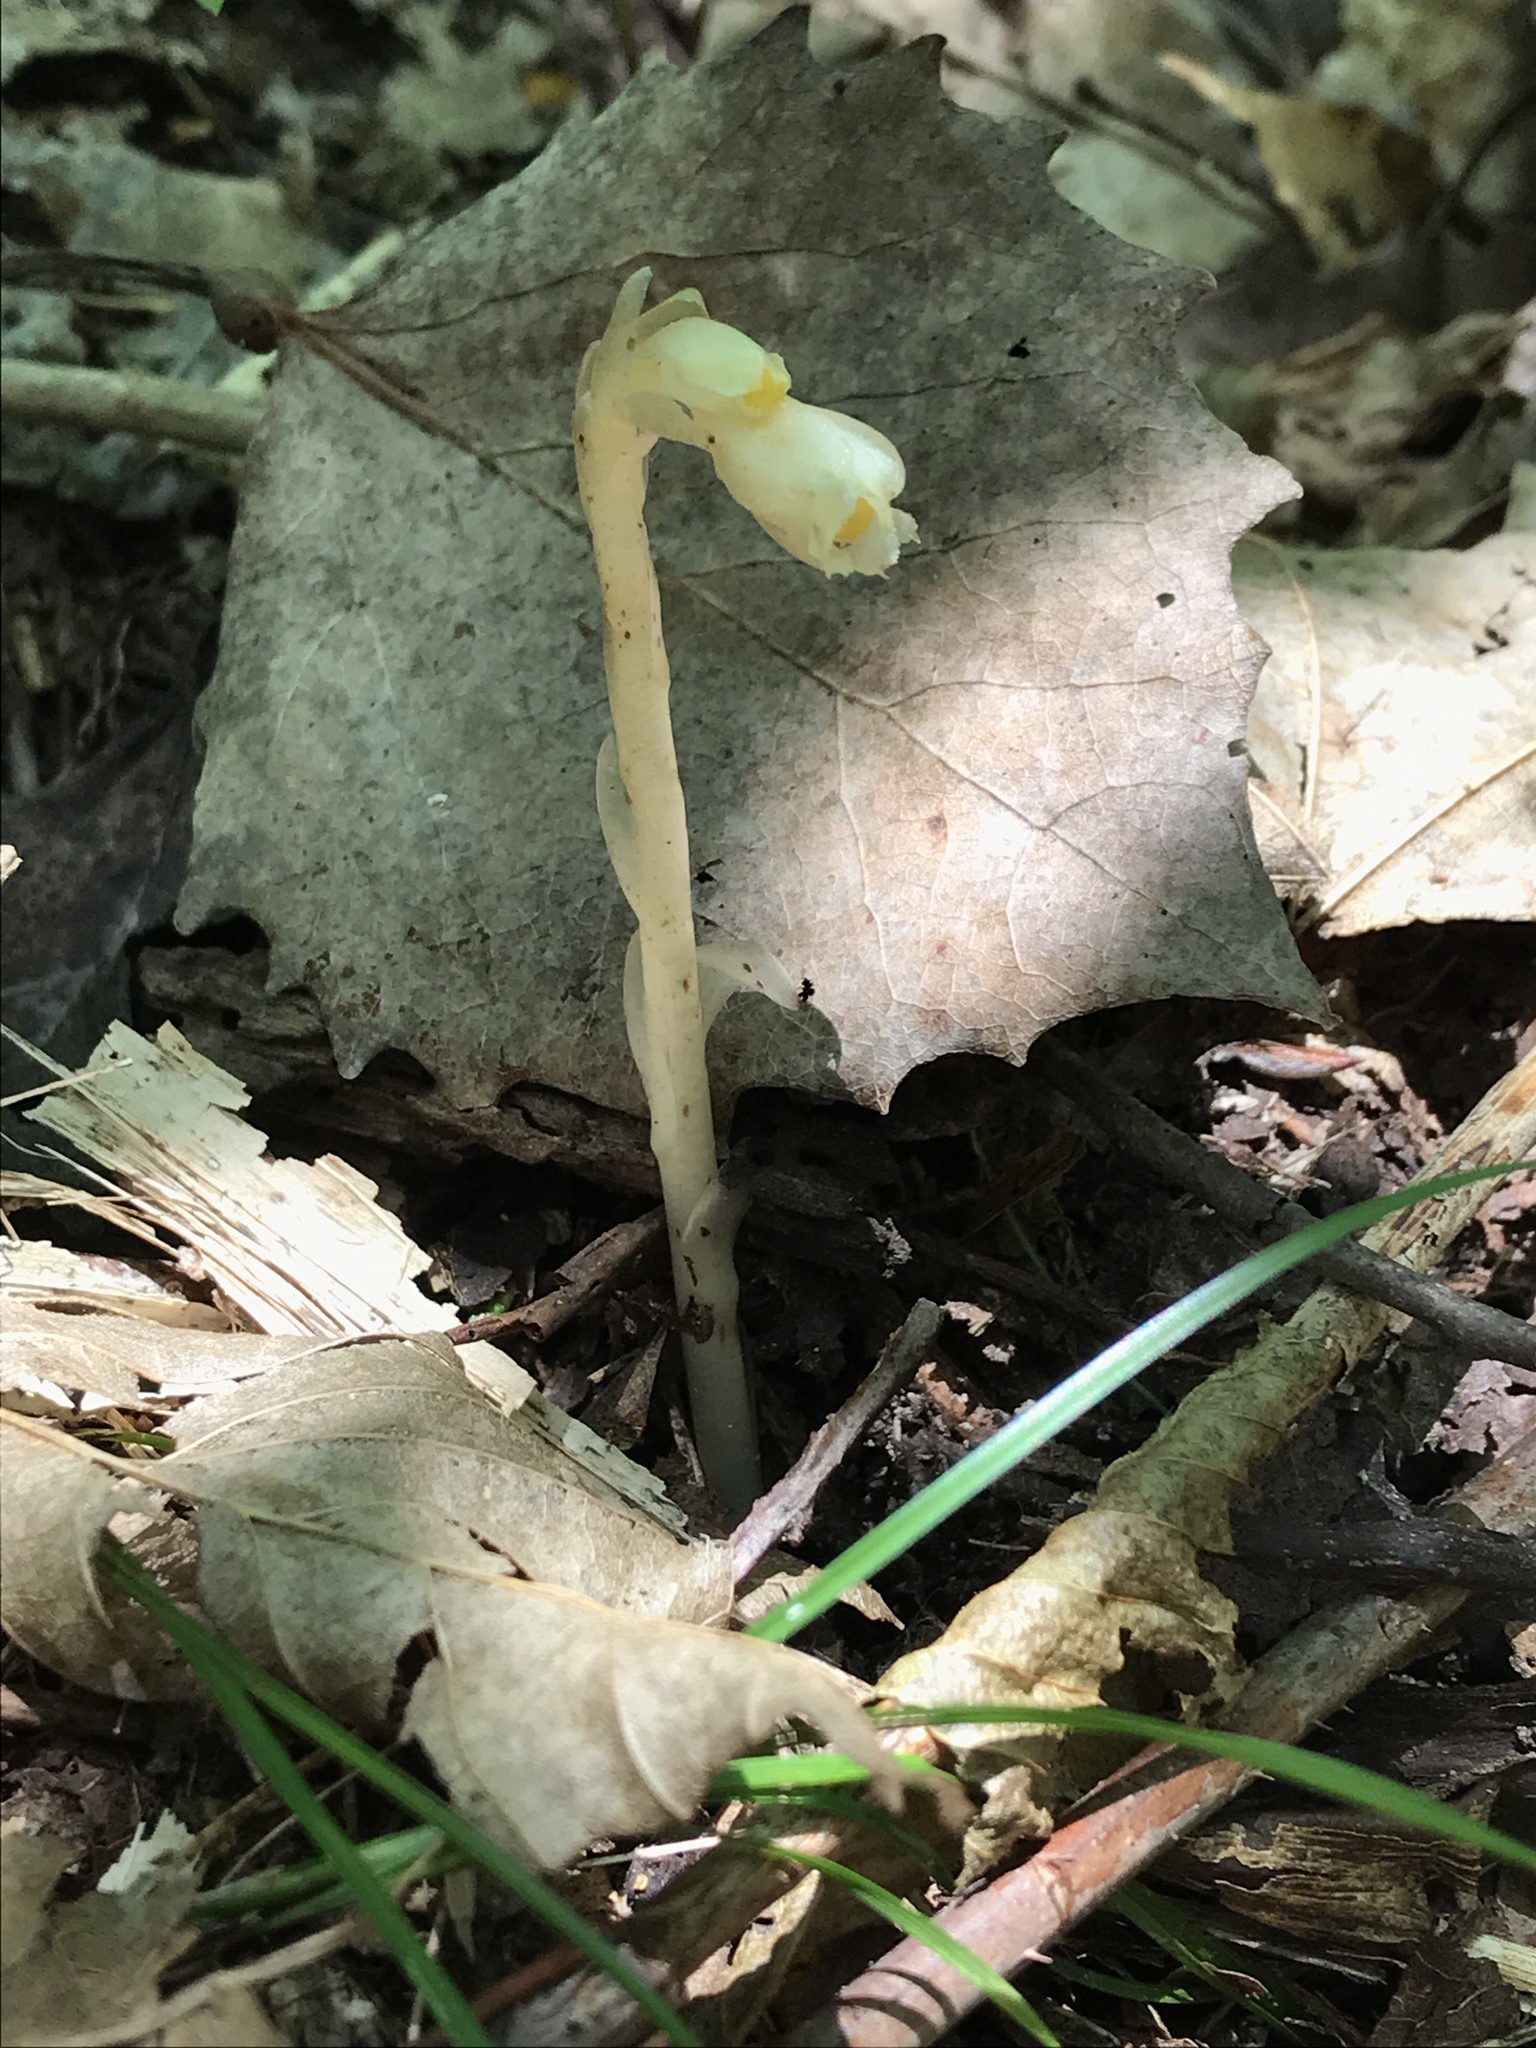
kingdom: Plantae
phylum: Tracheophyta
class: Magnoliopsida
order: Ericales
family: Ericaceae
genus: Hypopitys
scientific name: Hypopitys monotropa
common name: Yellow bird's-nest
